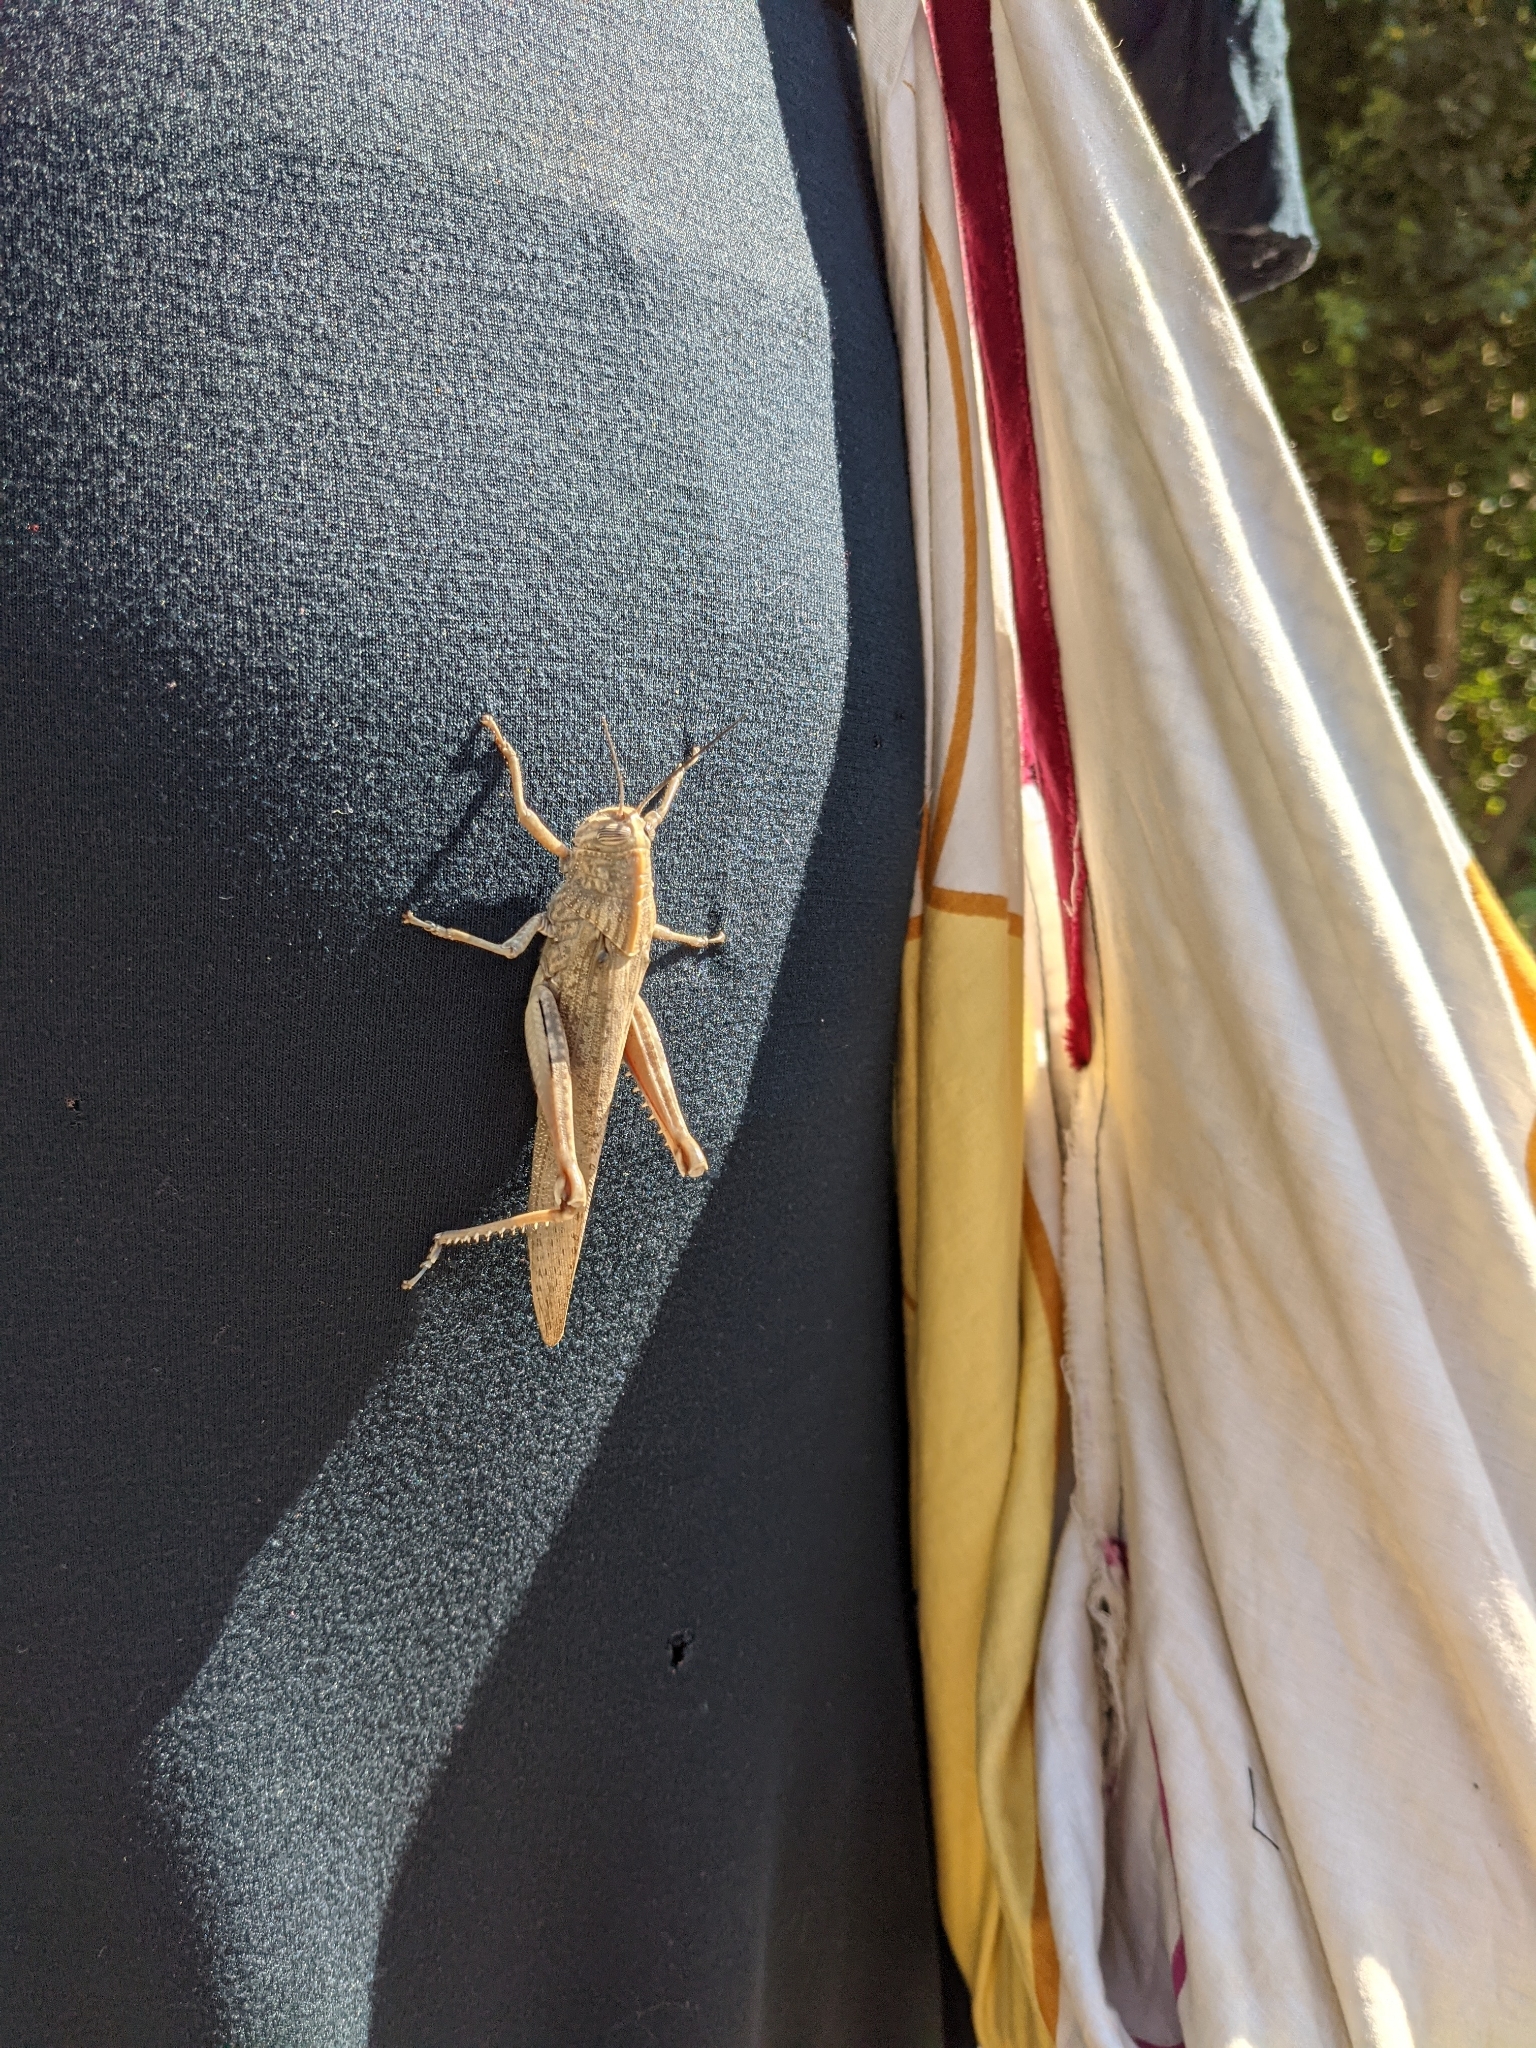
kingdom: Animalia
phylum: Arthropoda
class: Insecta
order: Orthoptera
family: Acrididae
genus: Anacridium
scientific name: Anacridium aegyptium
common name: Egyptian grasshopper
